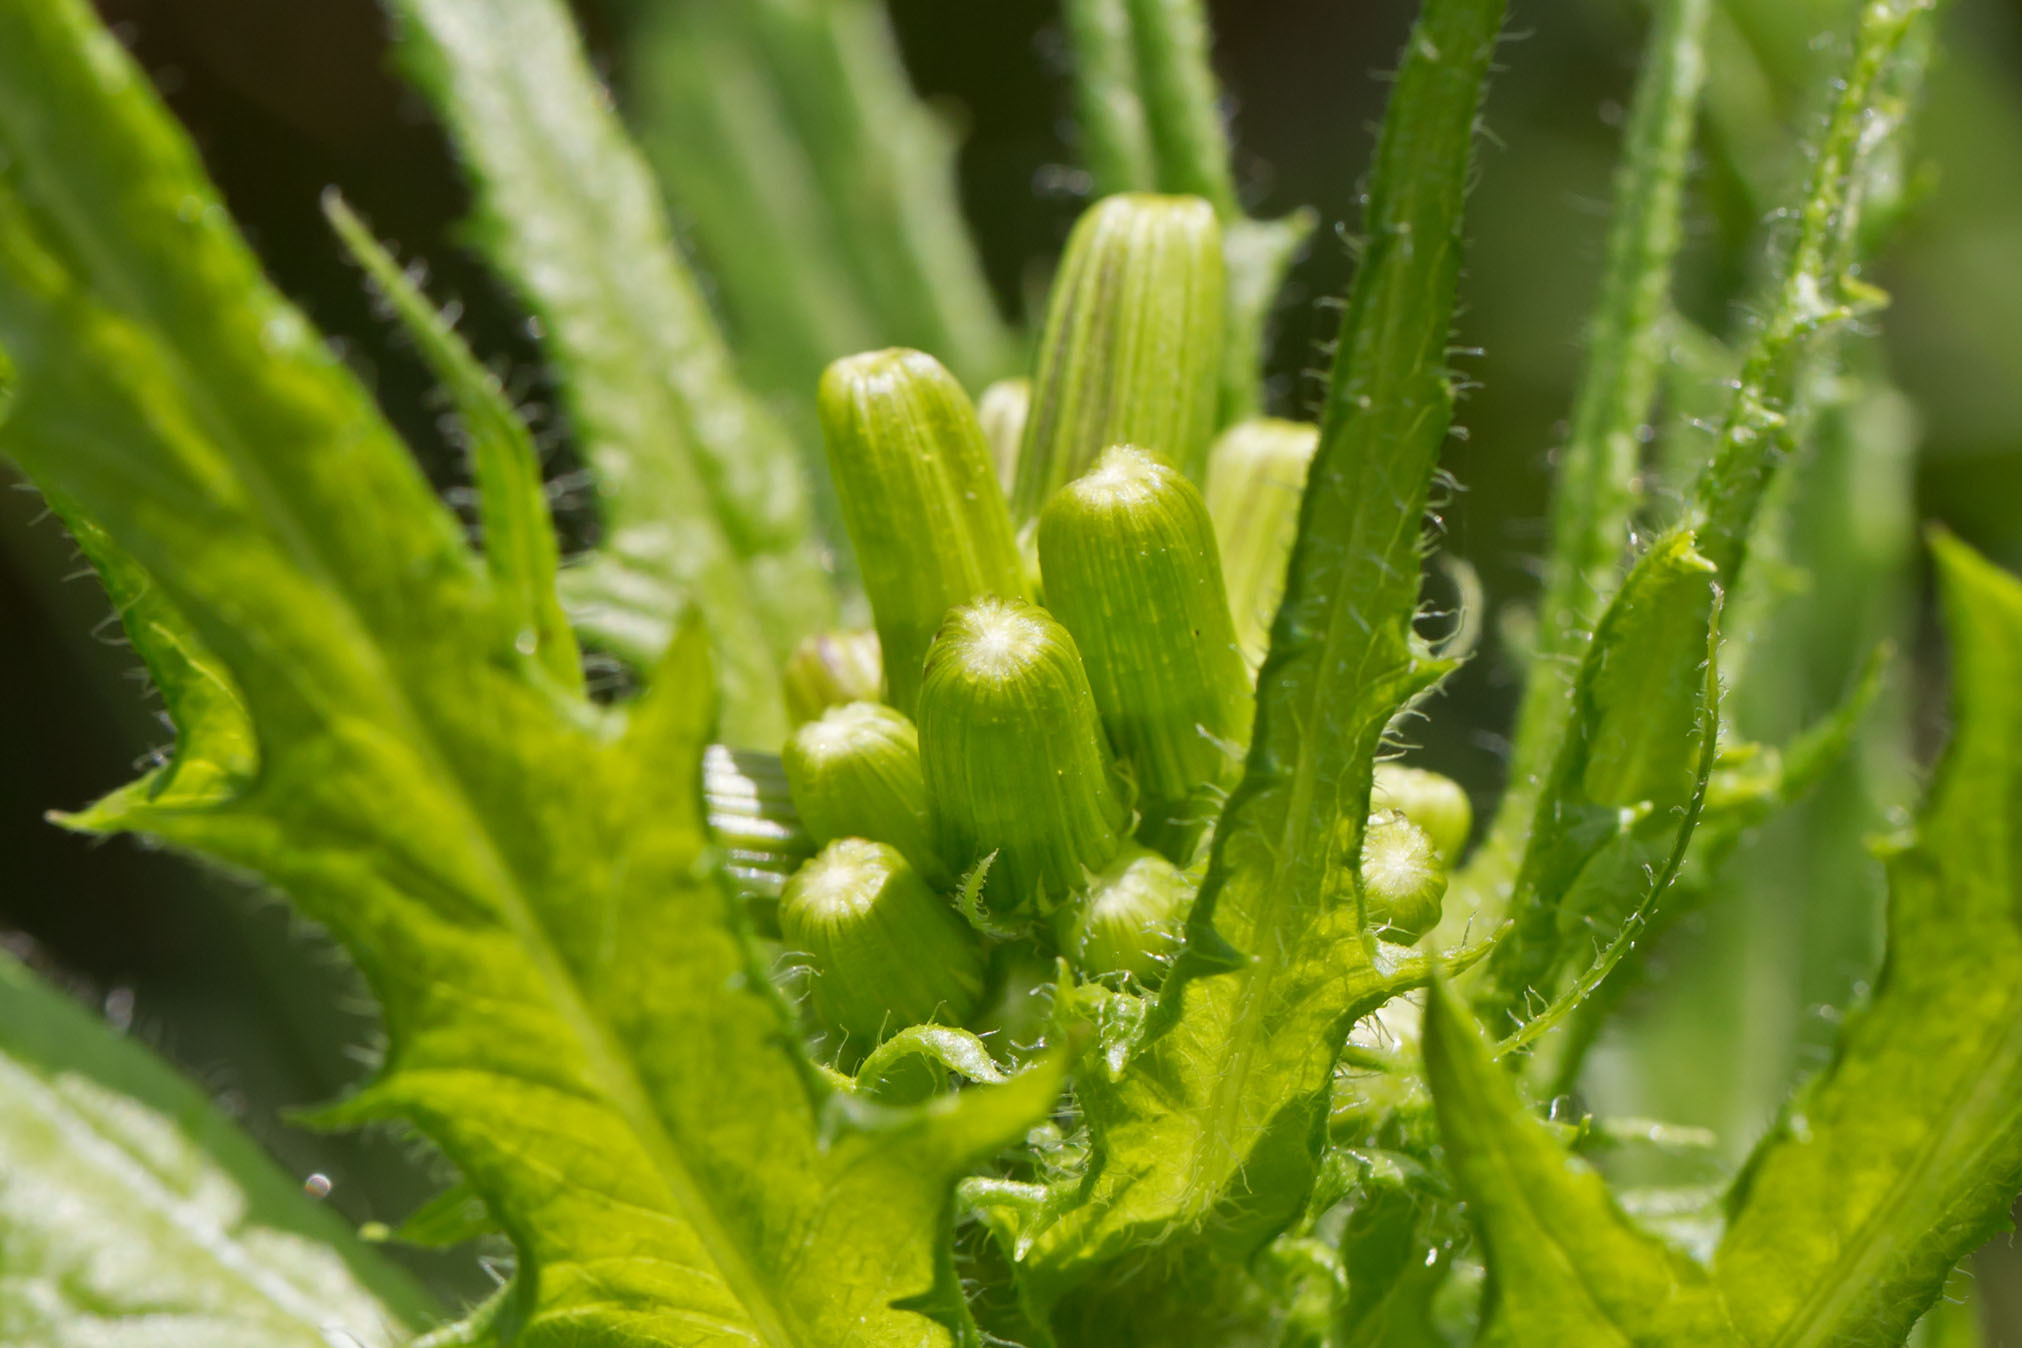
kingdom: Plantae
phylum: Tracheophyta
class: Magnoliopsida
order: Asterales
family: Asteraceae
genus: Erechtites
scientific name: Erechtites hieraciifolius
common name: American burnweed
